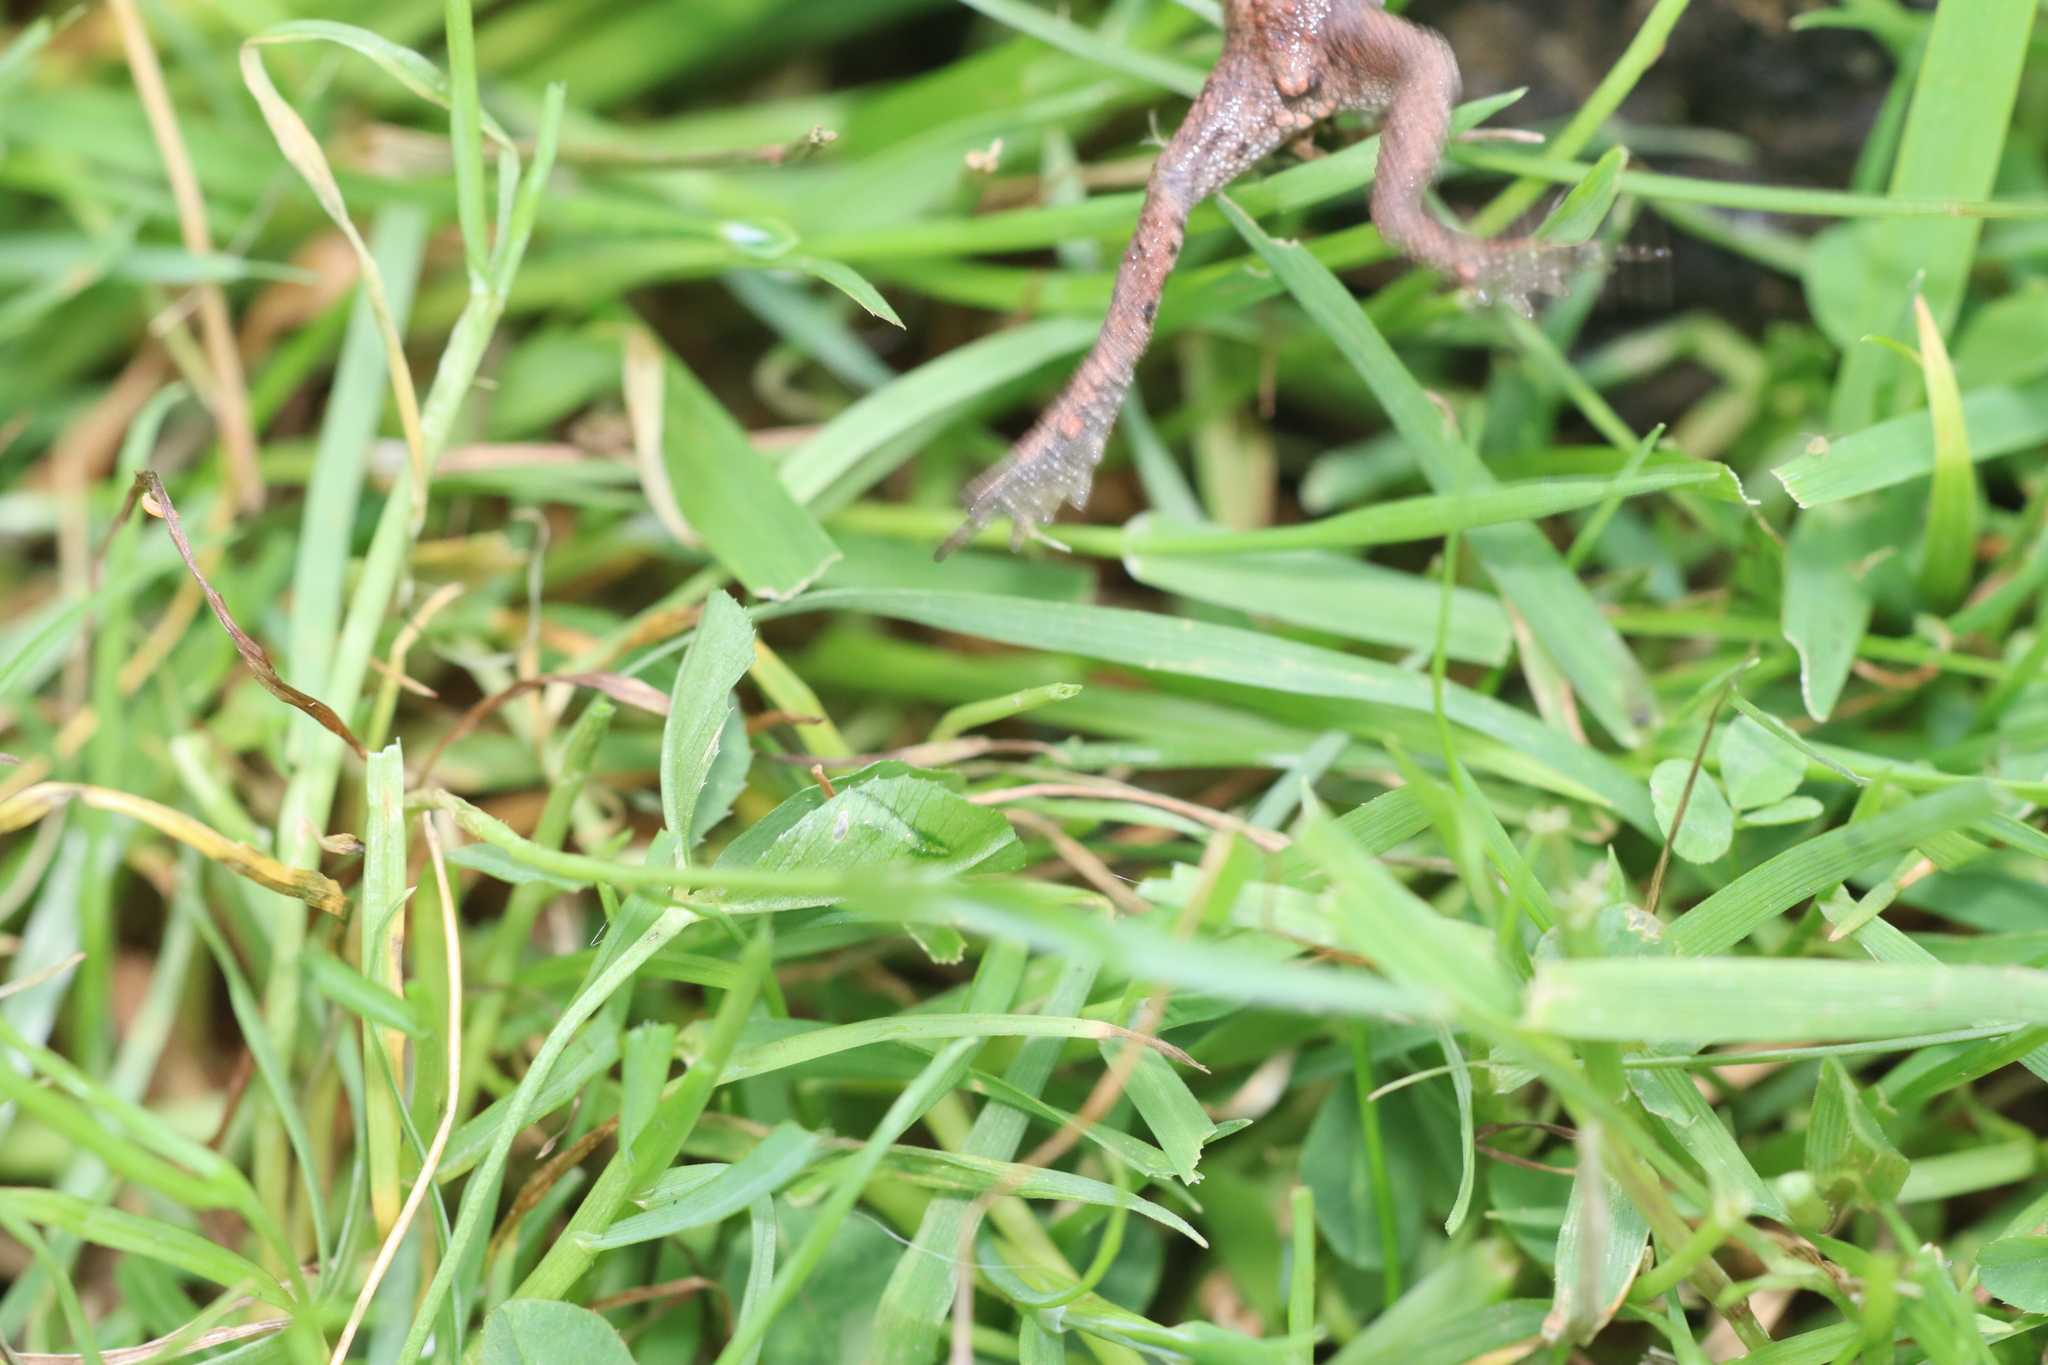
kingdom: Animalia
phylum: Chordata
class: Amphibia
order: Anura
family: Bufonidae
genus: Bufo
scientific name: Bufo bufo
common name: Common toad
